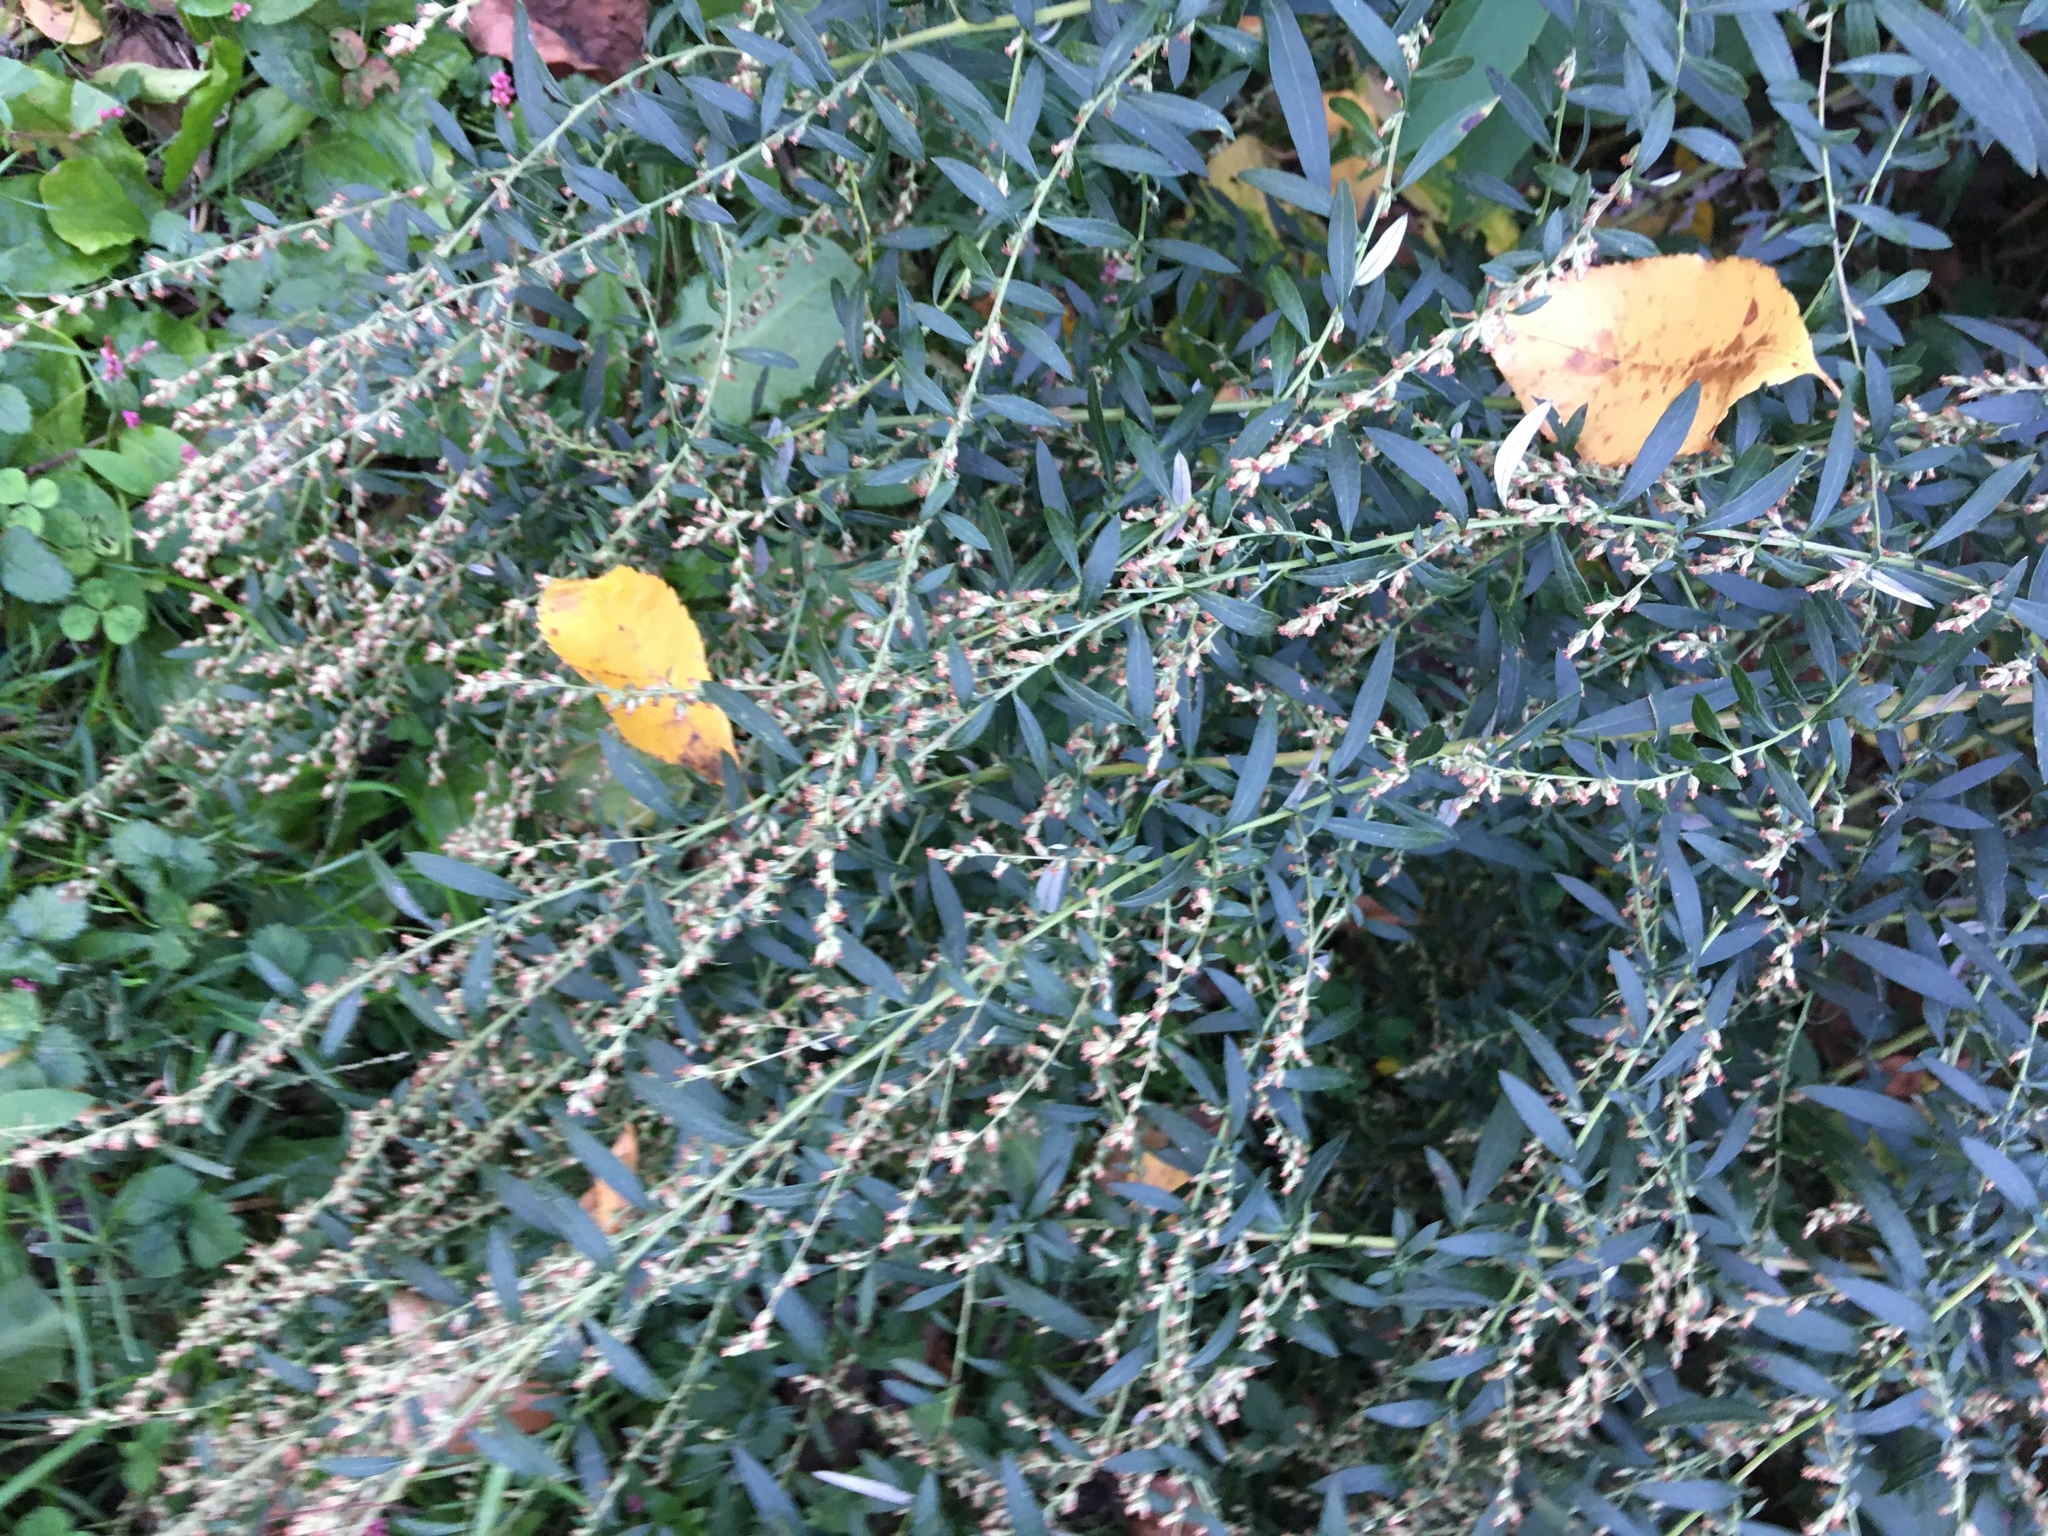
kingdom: Plantae
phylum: Tracheophyta
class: Magnoliopsida
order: Asterales
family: Asteraceae
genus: Artemisia
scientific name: Artemisia vulgaris
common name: Mugwort
